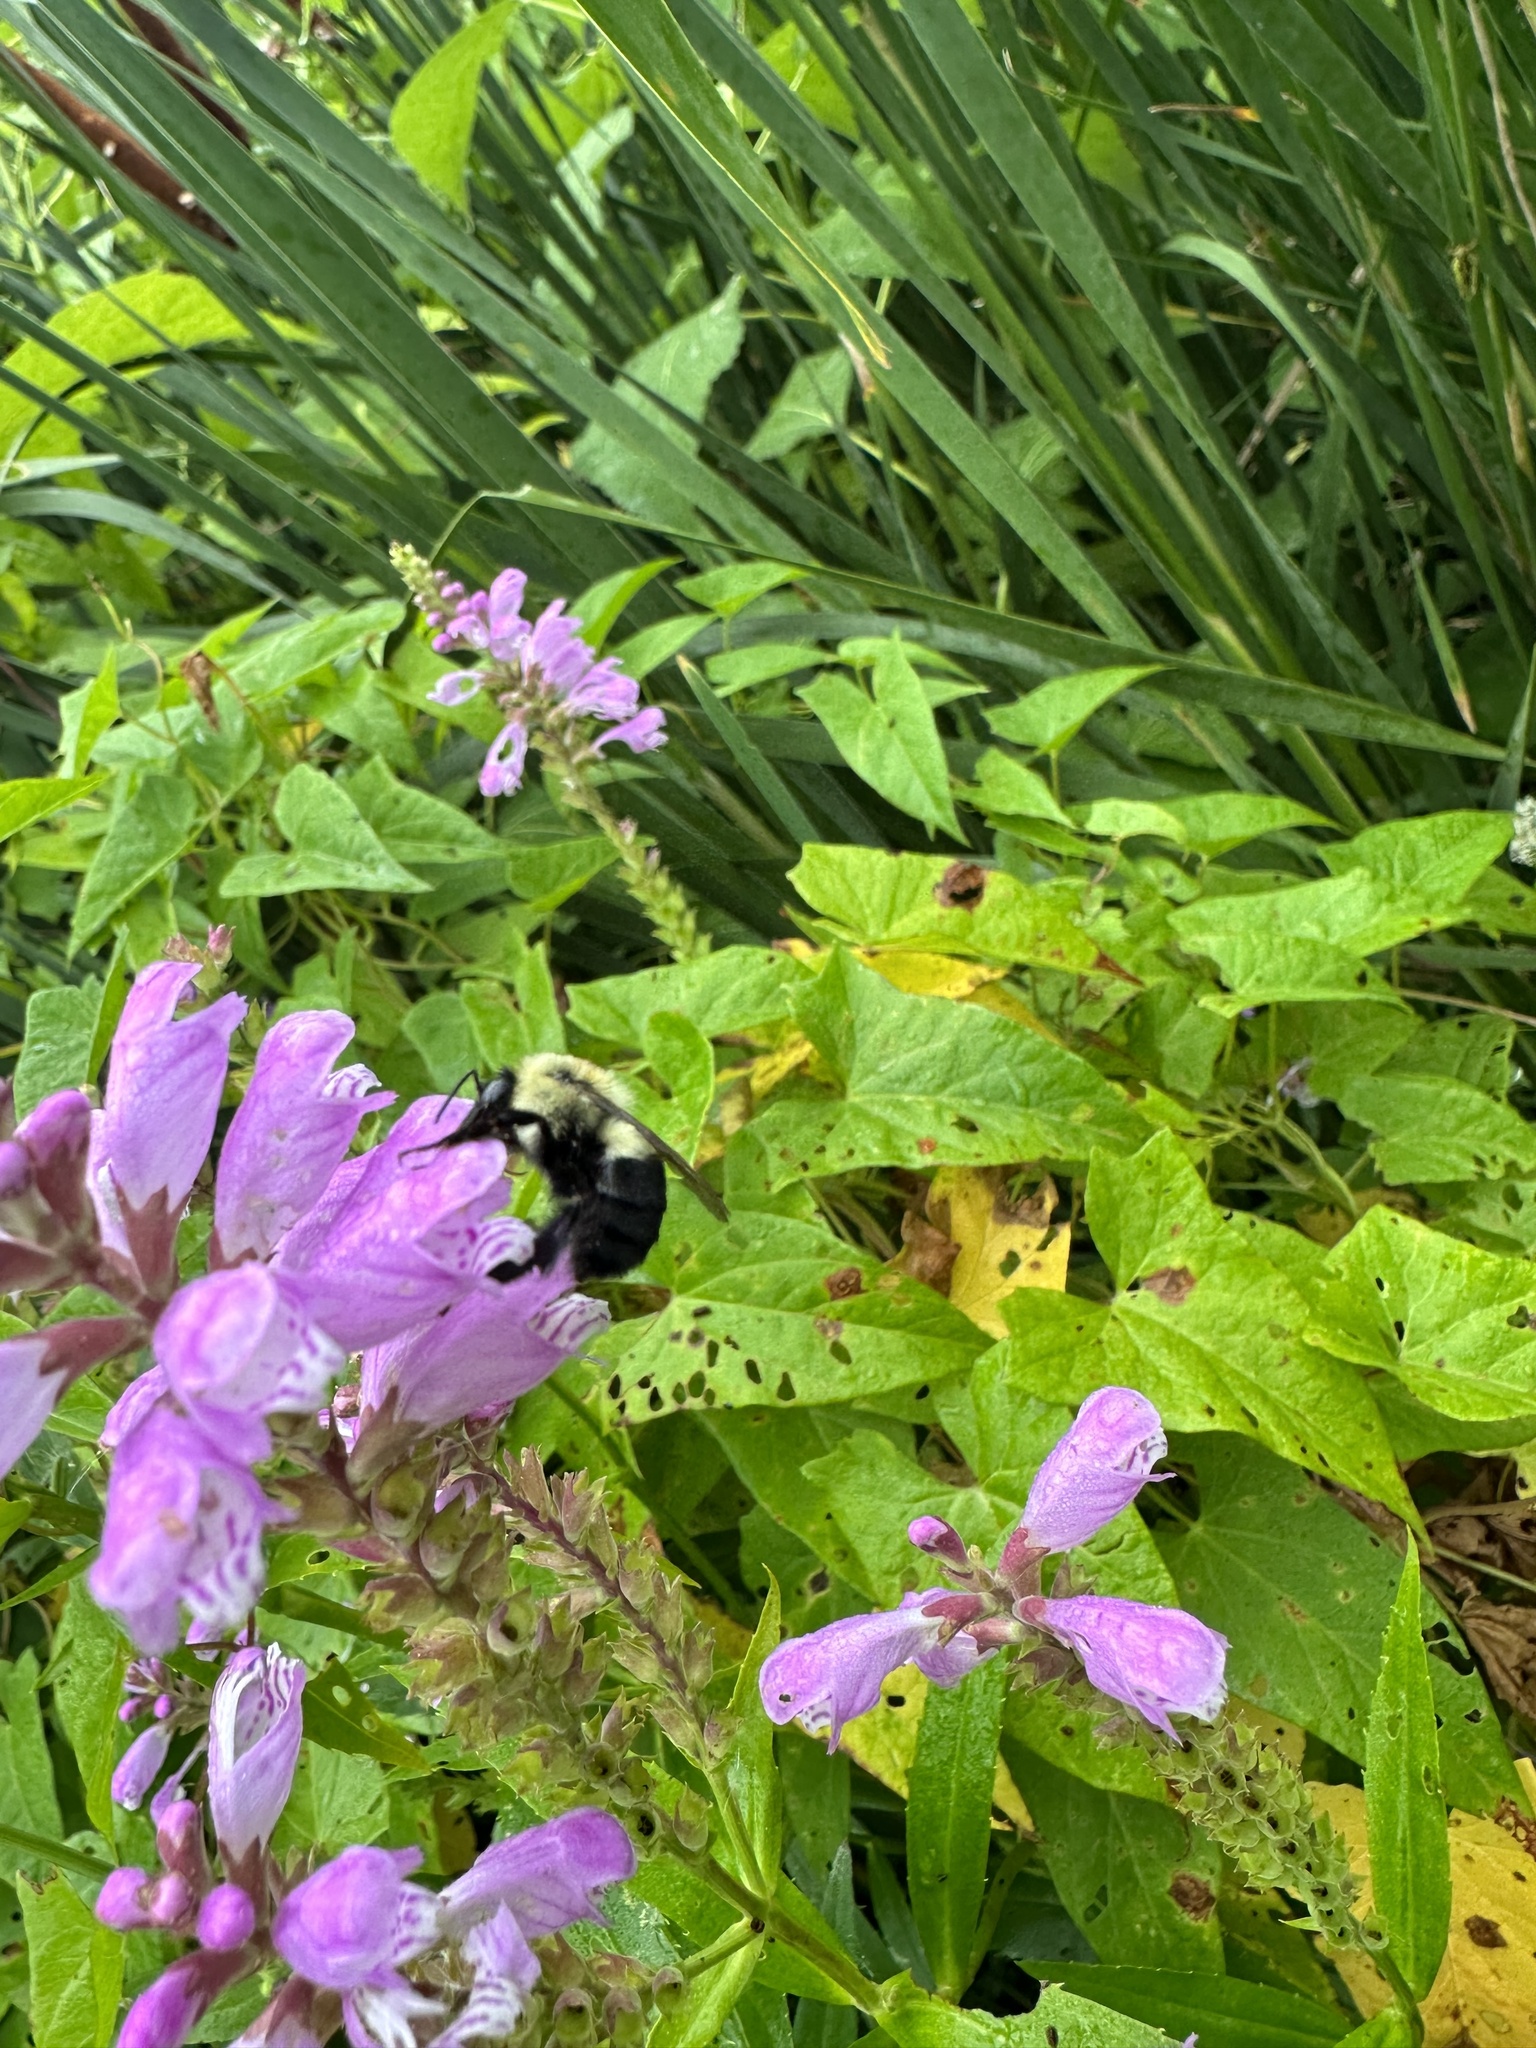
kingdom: Animalia
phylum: Arthropoda
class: Insecta
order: Hymenoptera
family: Apidae
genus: Bombus
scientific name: Bombus impatiens
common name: Common eastern bumble bee
